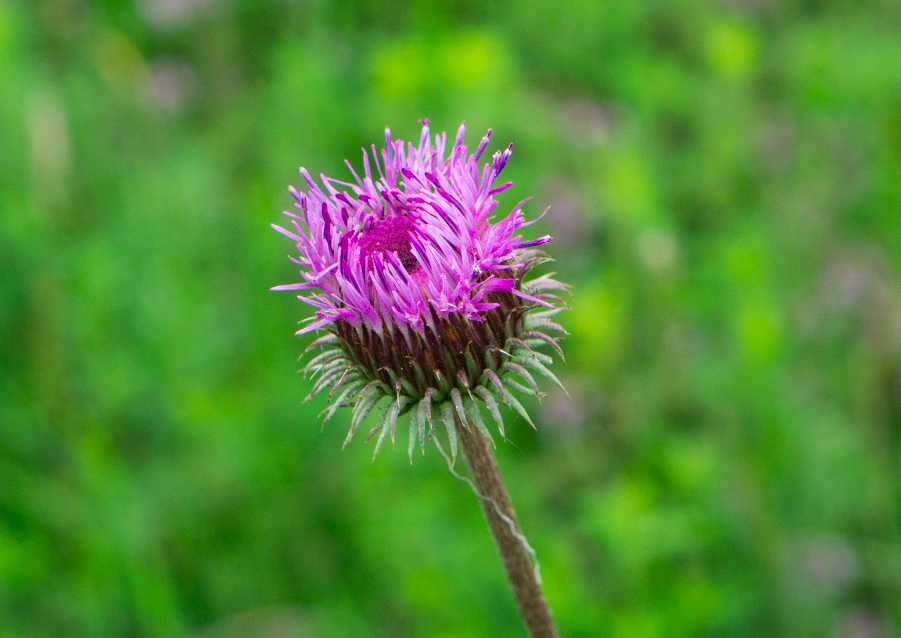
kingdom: Plantae
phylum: Tracheophyta
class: Magnoliopsida
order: Asterales
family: Asteraceae
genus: Jurinea
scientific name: Jurinea mollis
